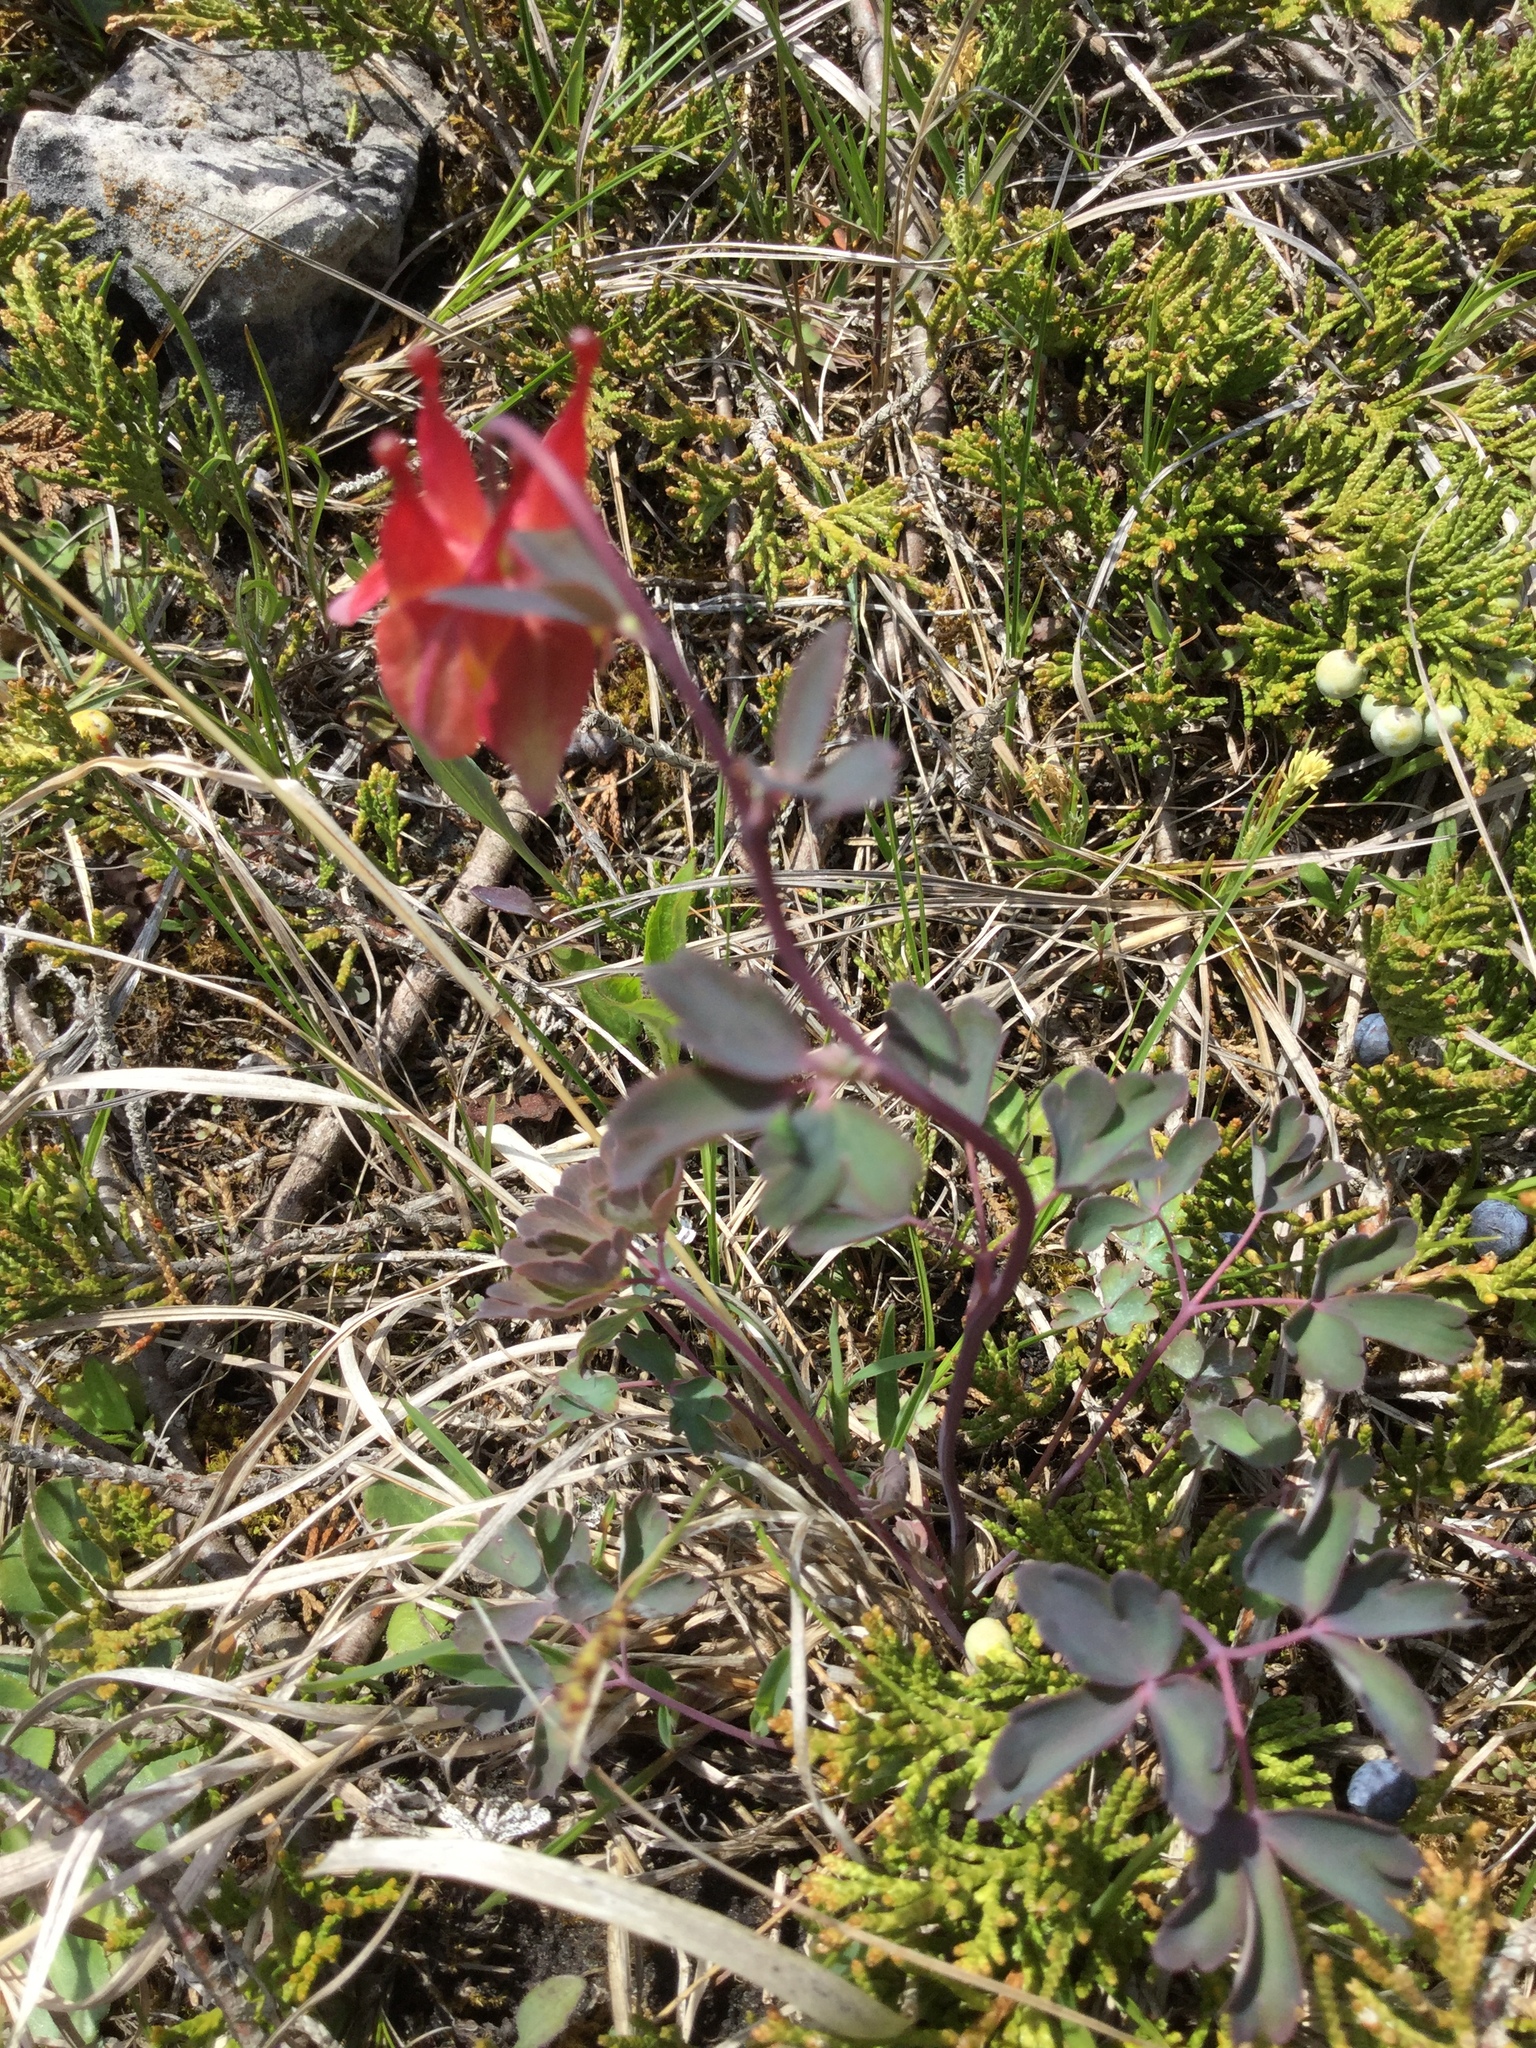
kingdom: Plantae
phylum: Tracheophyta
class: Magnoliopsida
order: Ranunculales
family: Ranunculaceae
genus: Aquilegia
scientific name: Aquilegia canadensis
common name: American columbine
